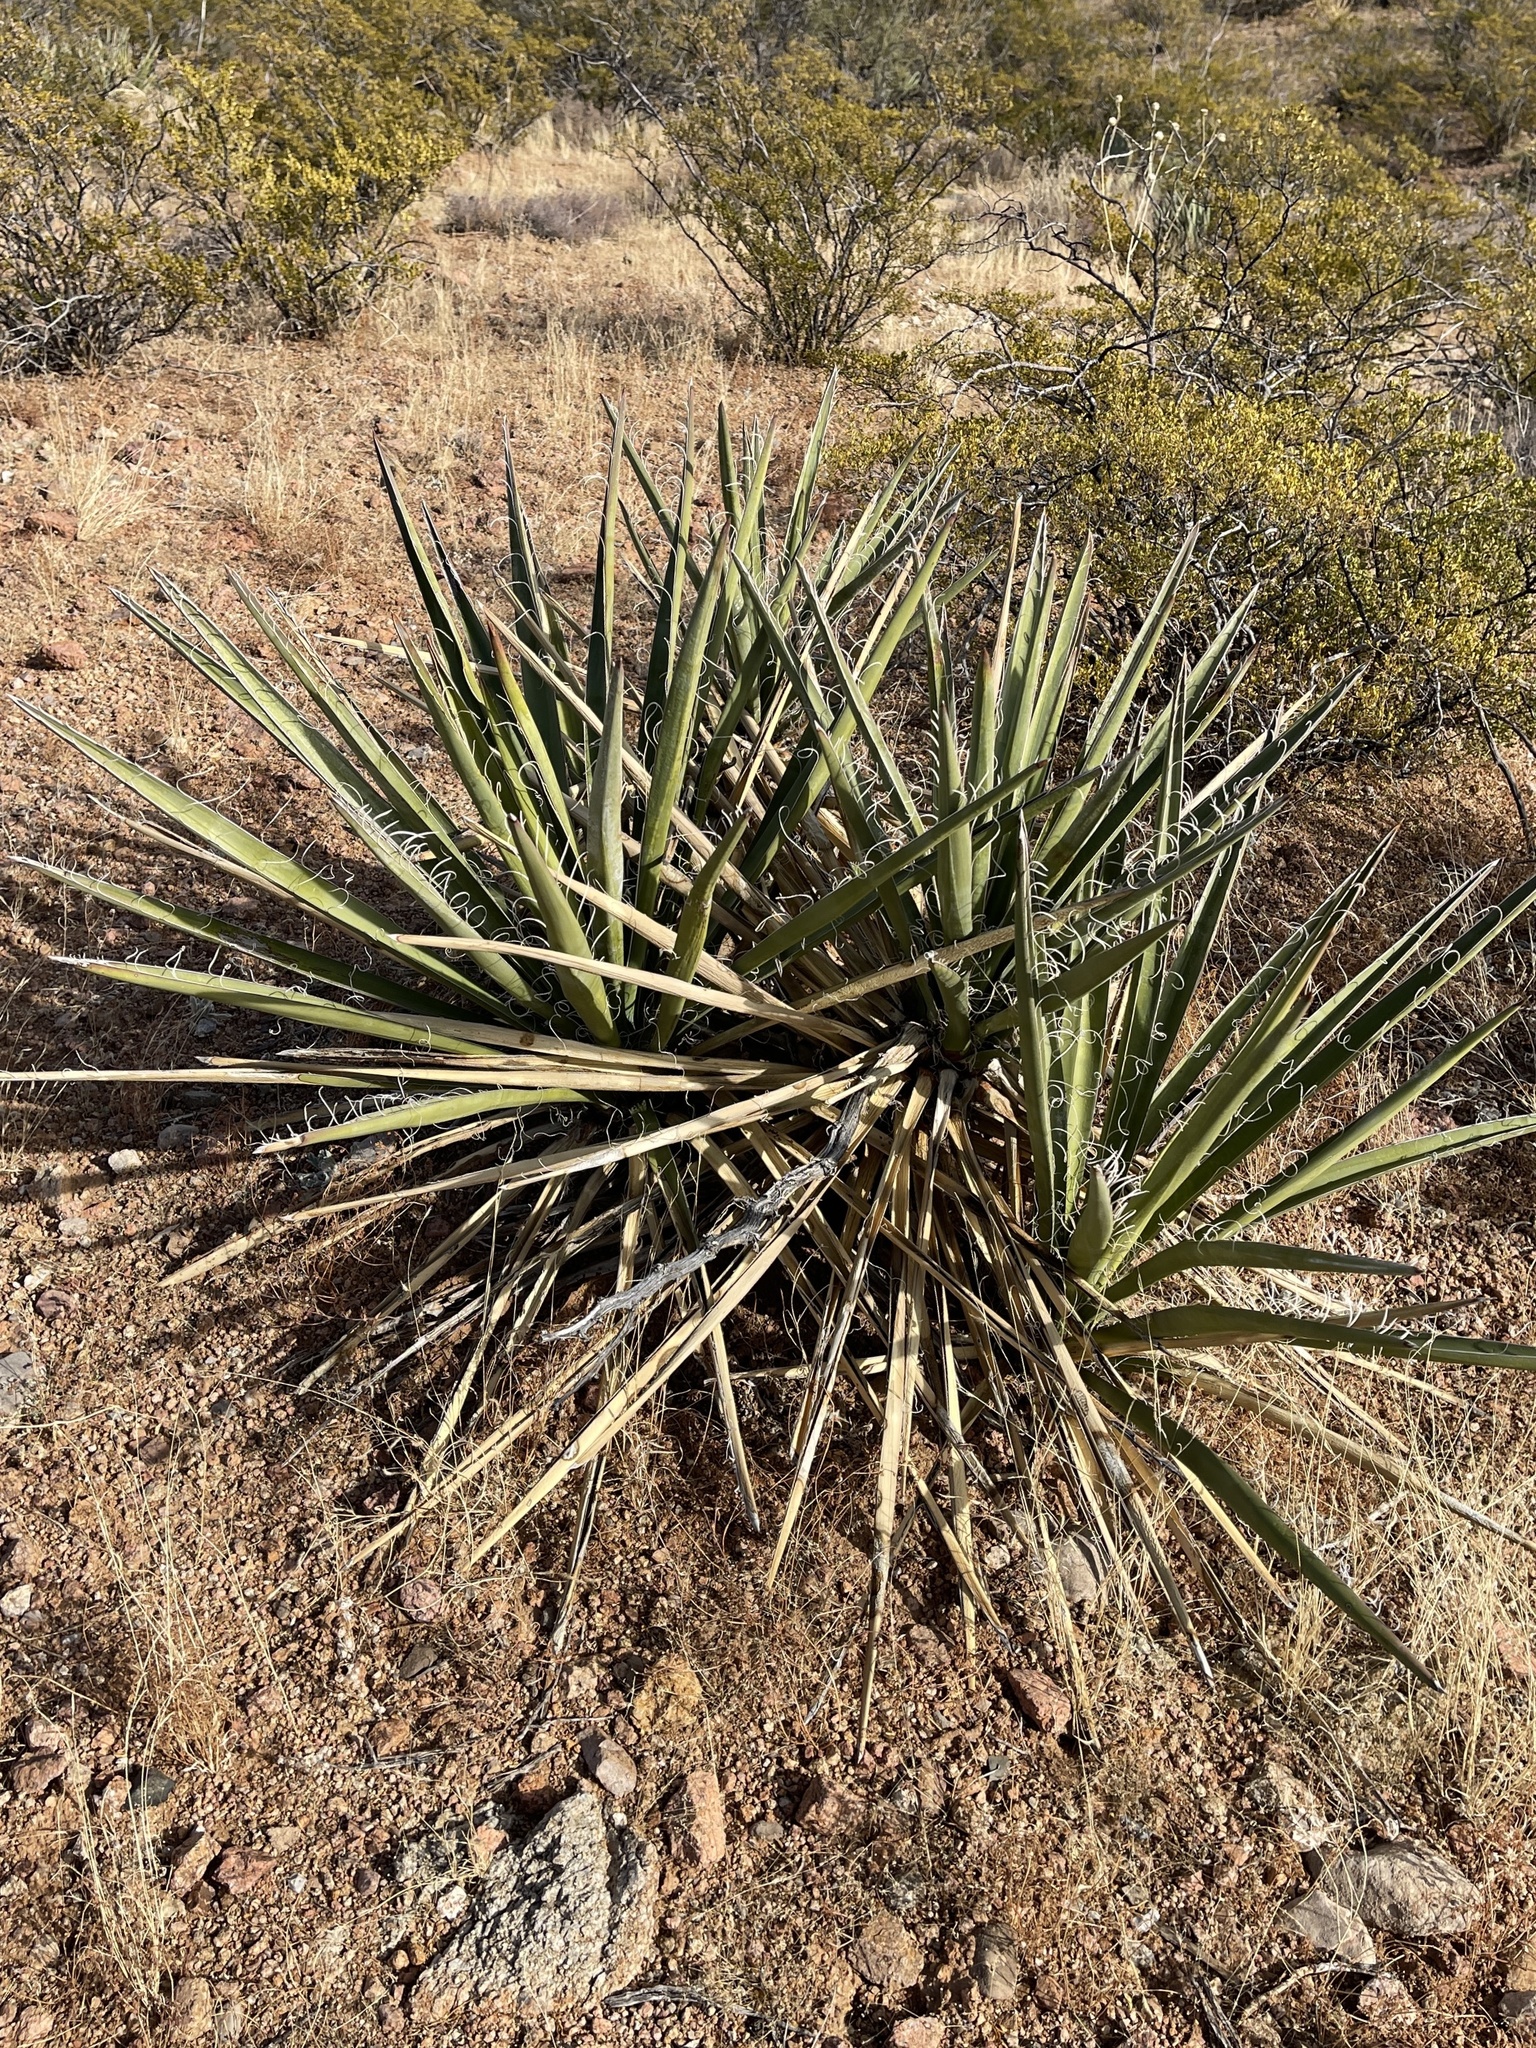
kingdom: Plantae
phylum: Tracheophyta
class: Liliopsida
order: Asparagales
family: Asparagaceae
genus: Yucca
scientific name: Yucca baccata
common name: Banana yucca
